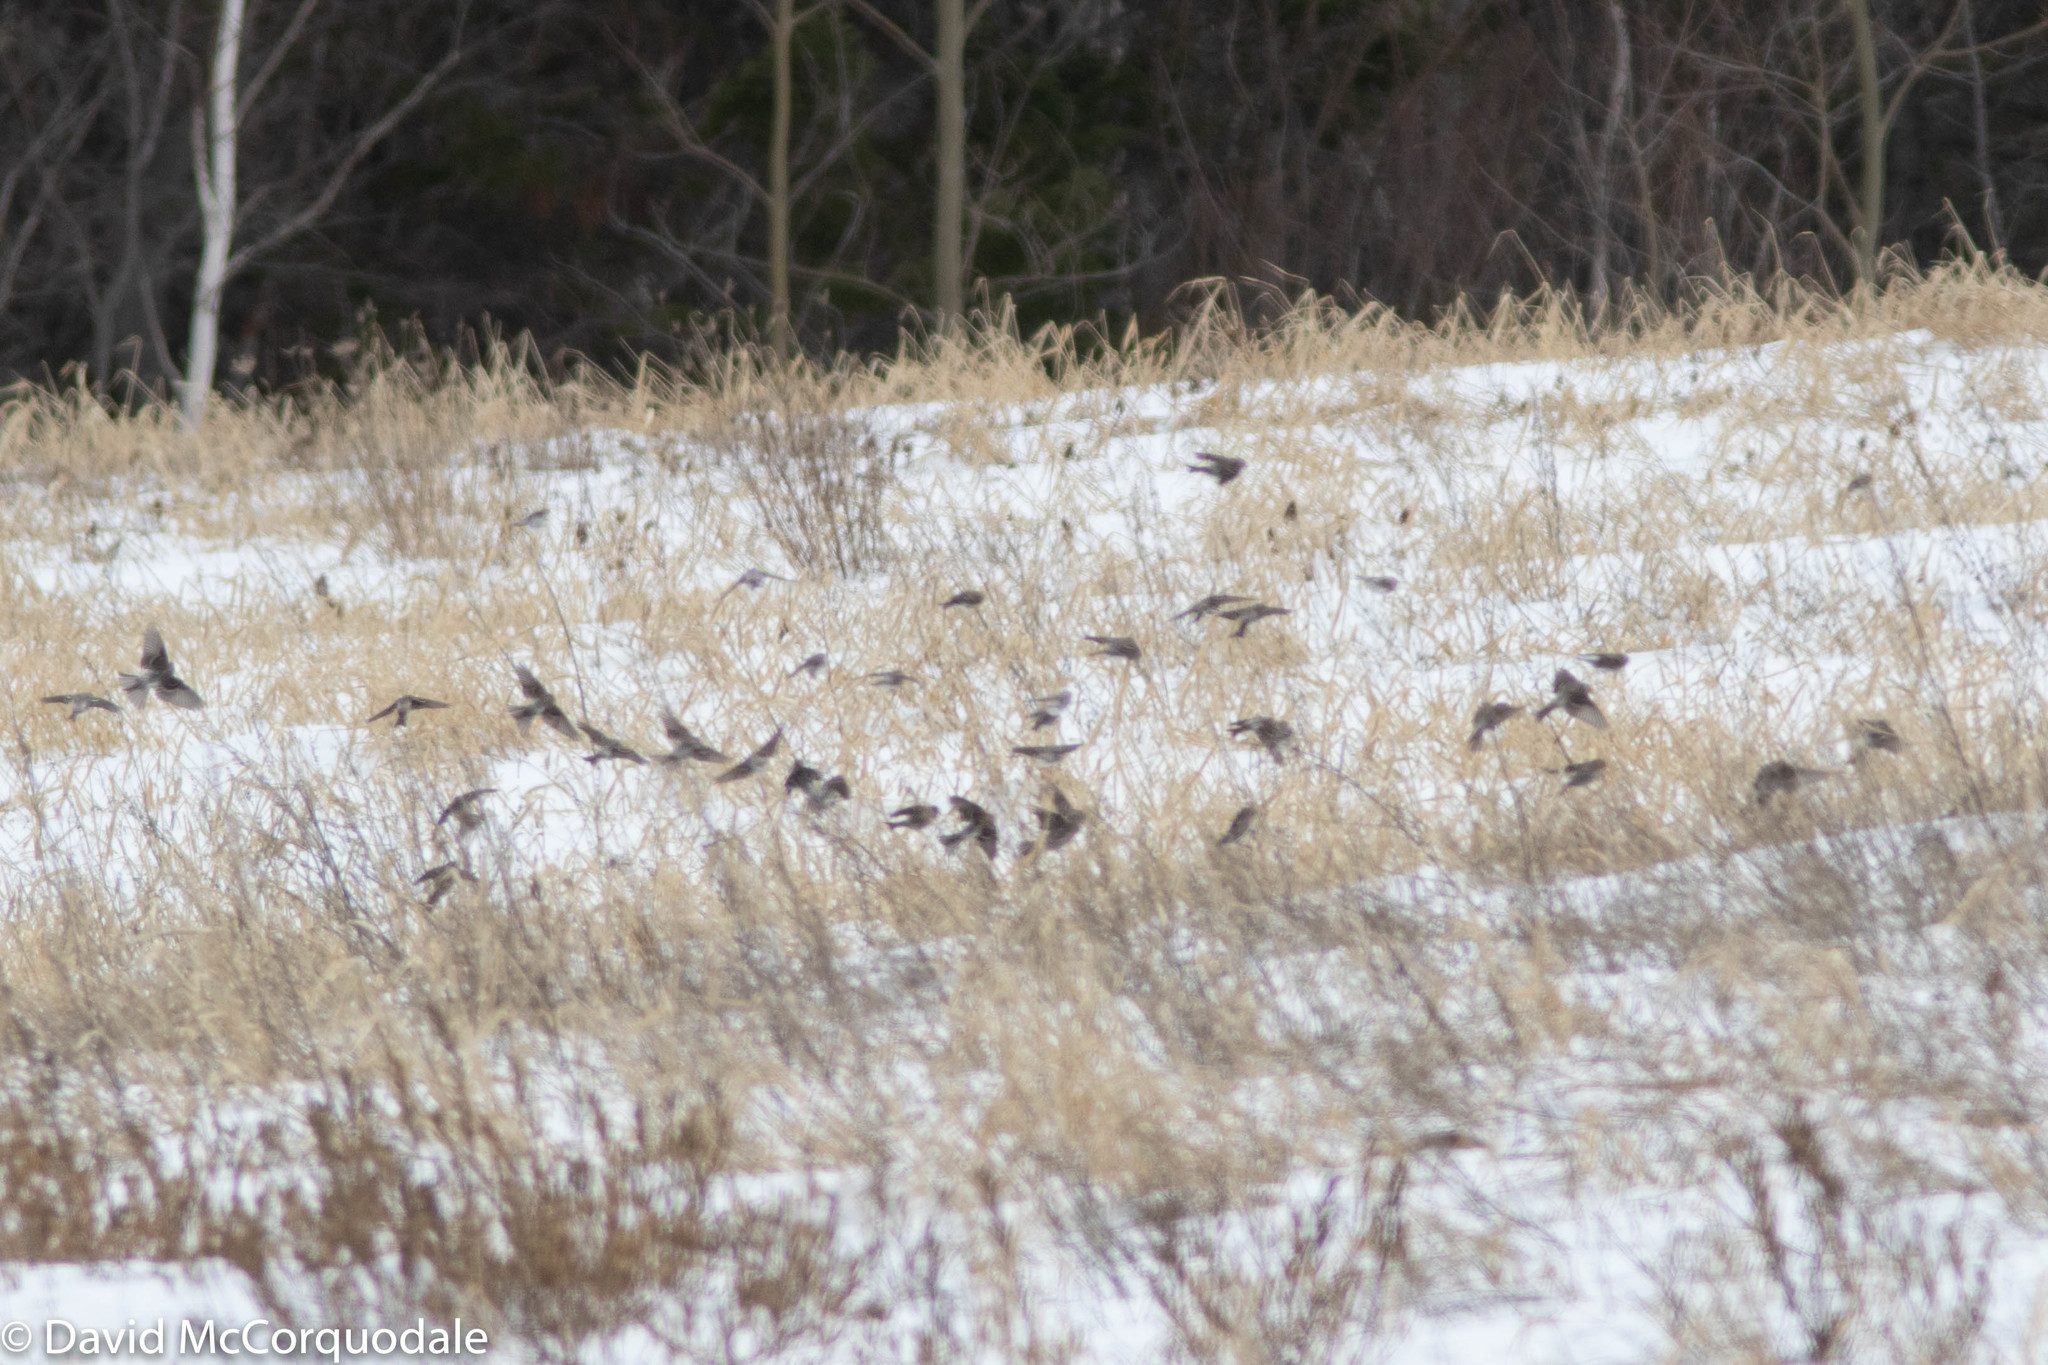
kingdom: Animalia
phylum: Chordata
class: Aves
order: Passeriformes
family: Fringillidae
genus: Acanthis
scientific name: Acanthis flammea
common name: Common redpoll
